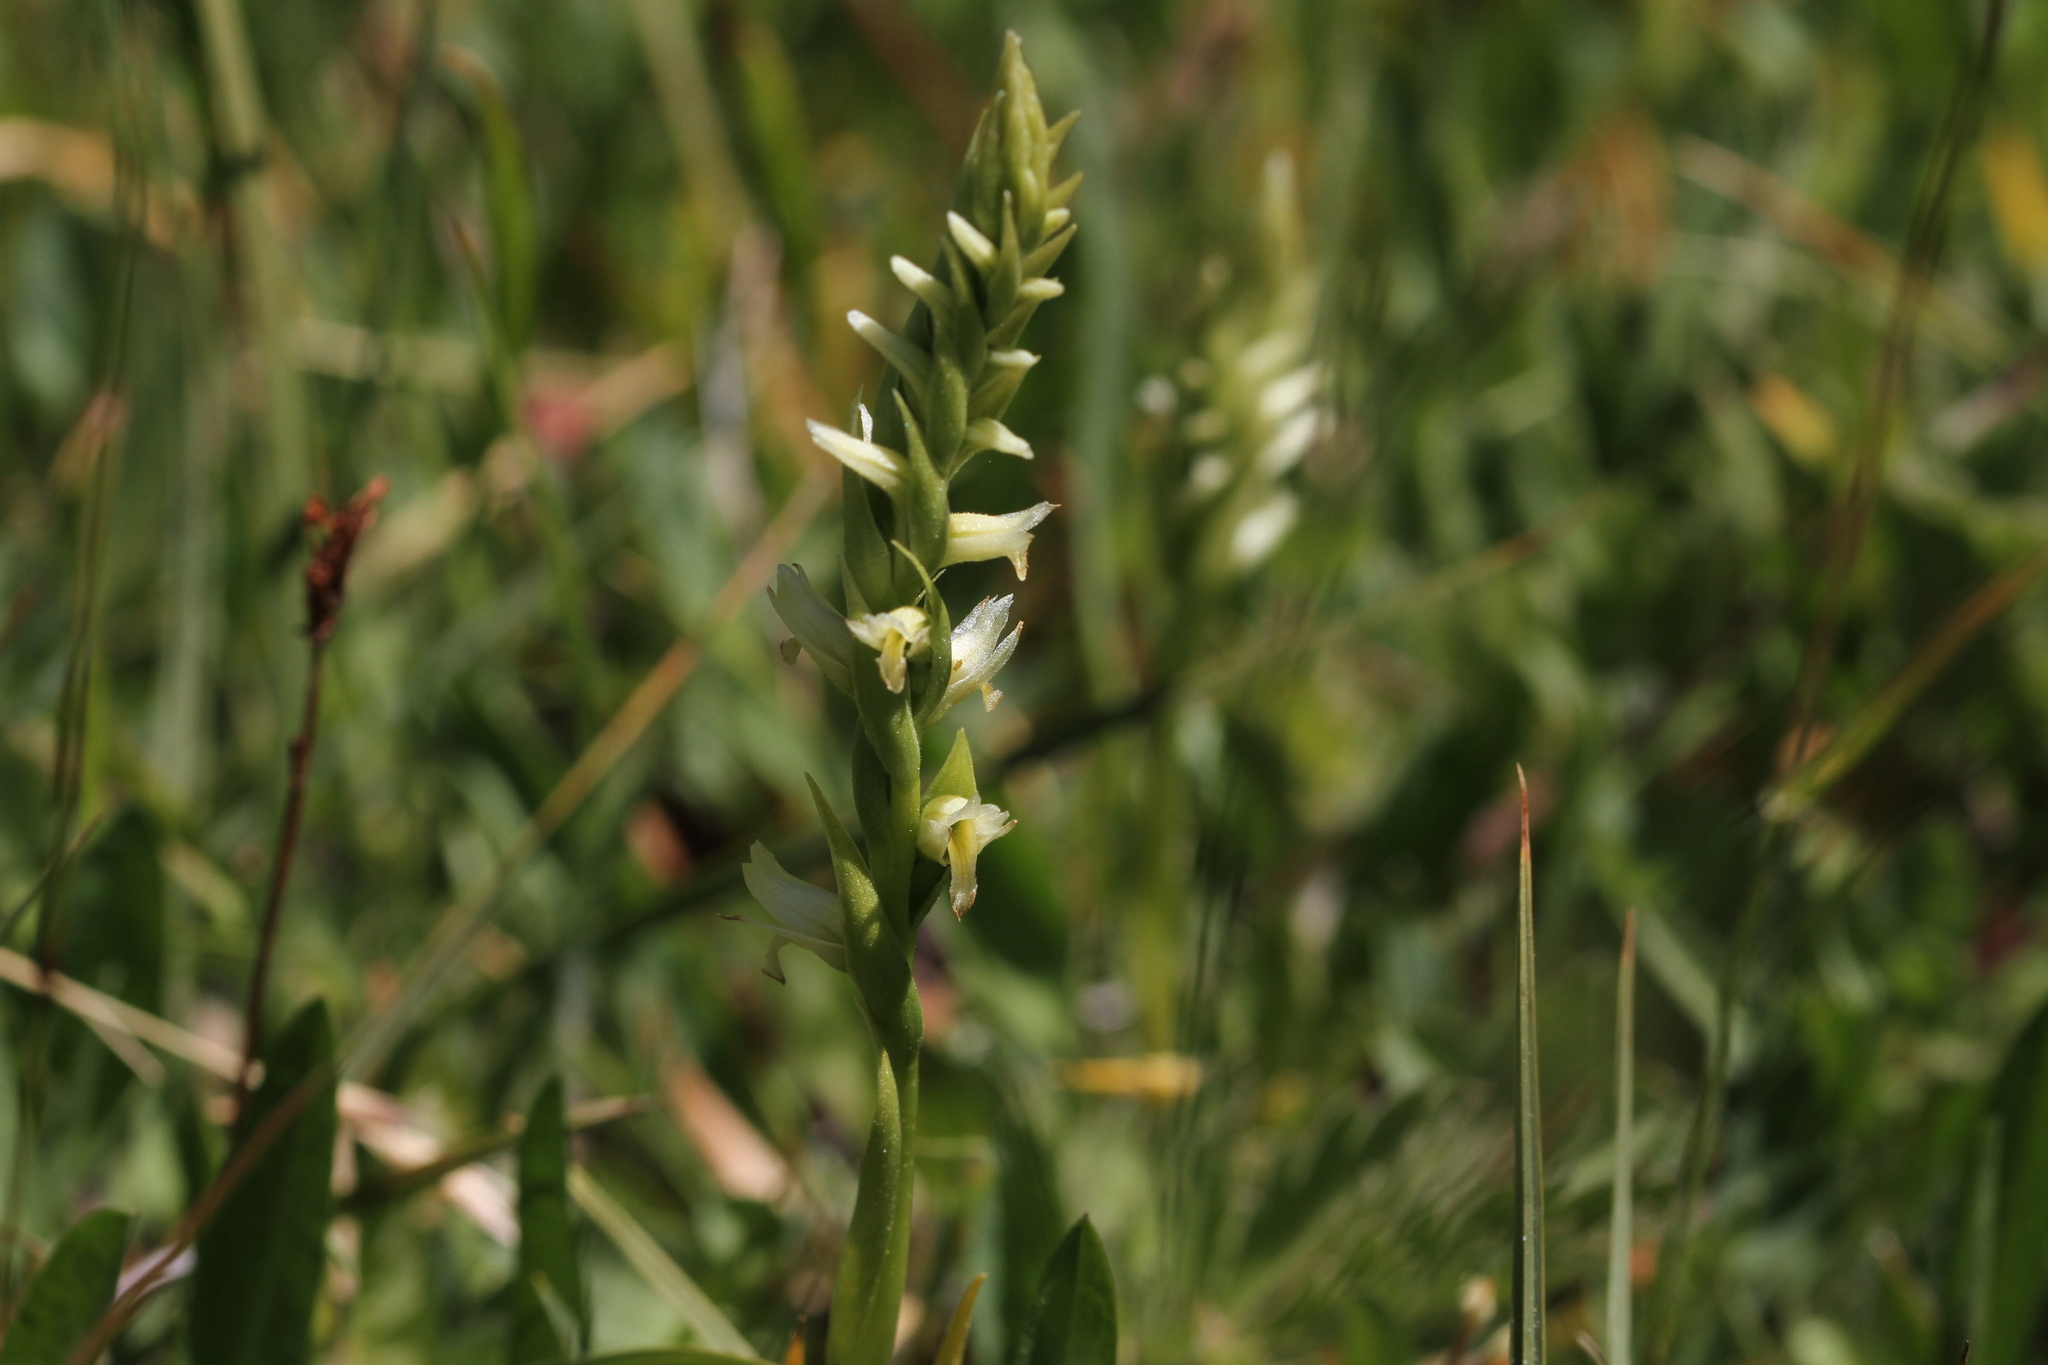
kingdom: Plantae
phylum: Tracheophyta
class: Liliopsida
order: Asparagales
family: Orchidaceae
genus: Spiranthes
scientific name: Spiranthes stellata
